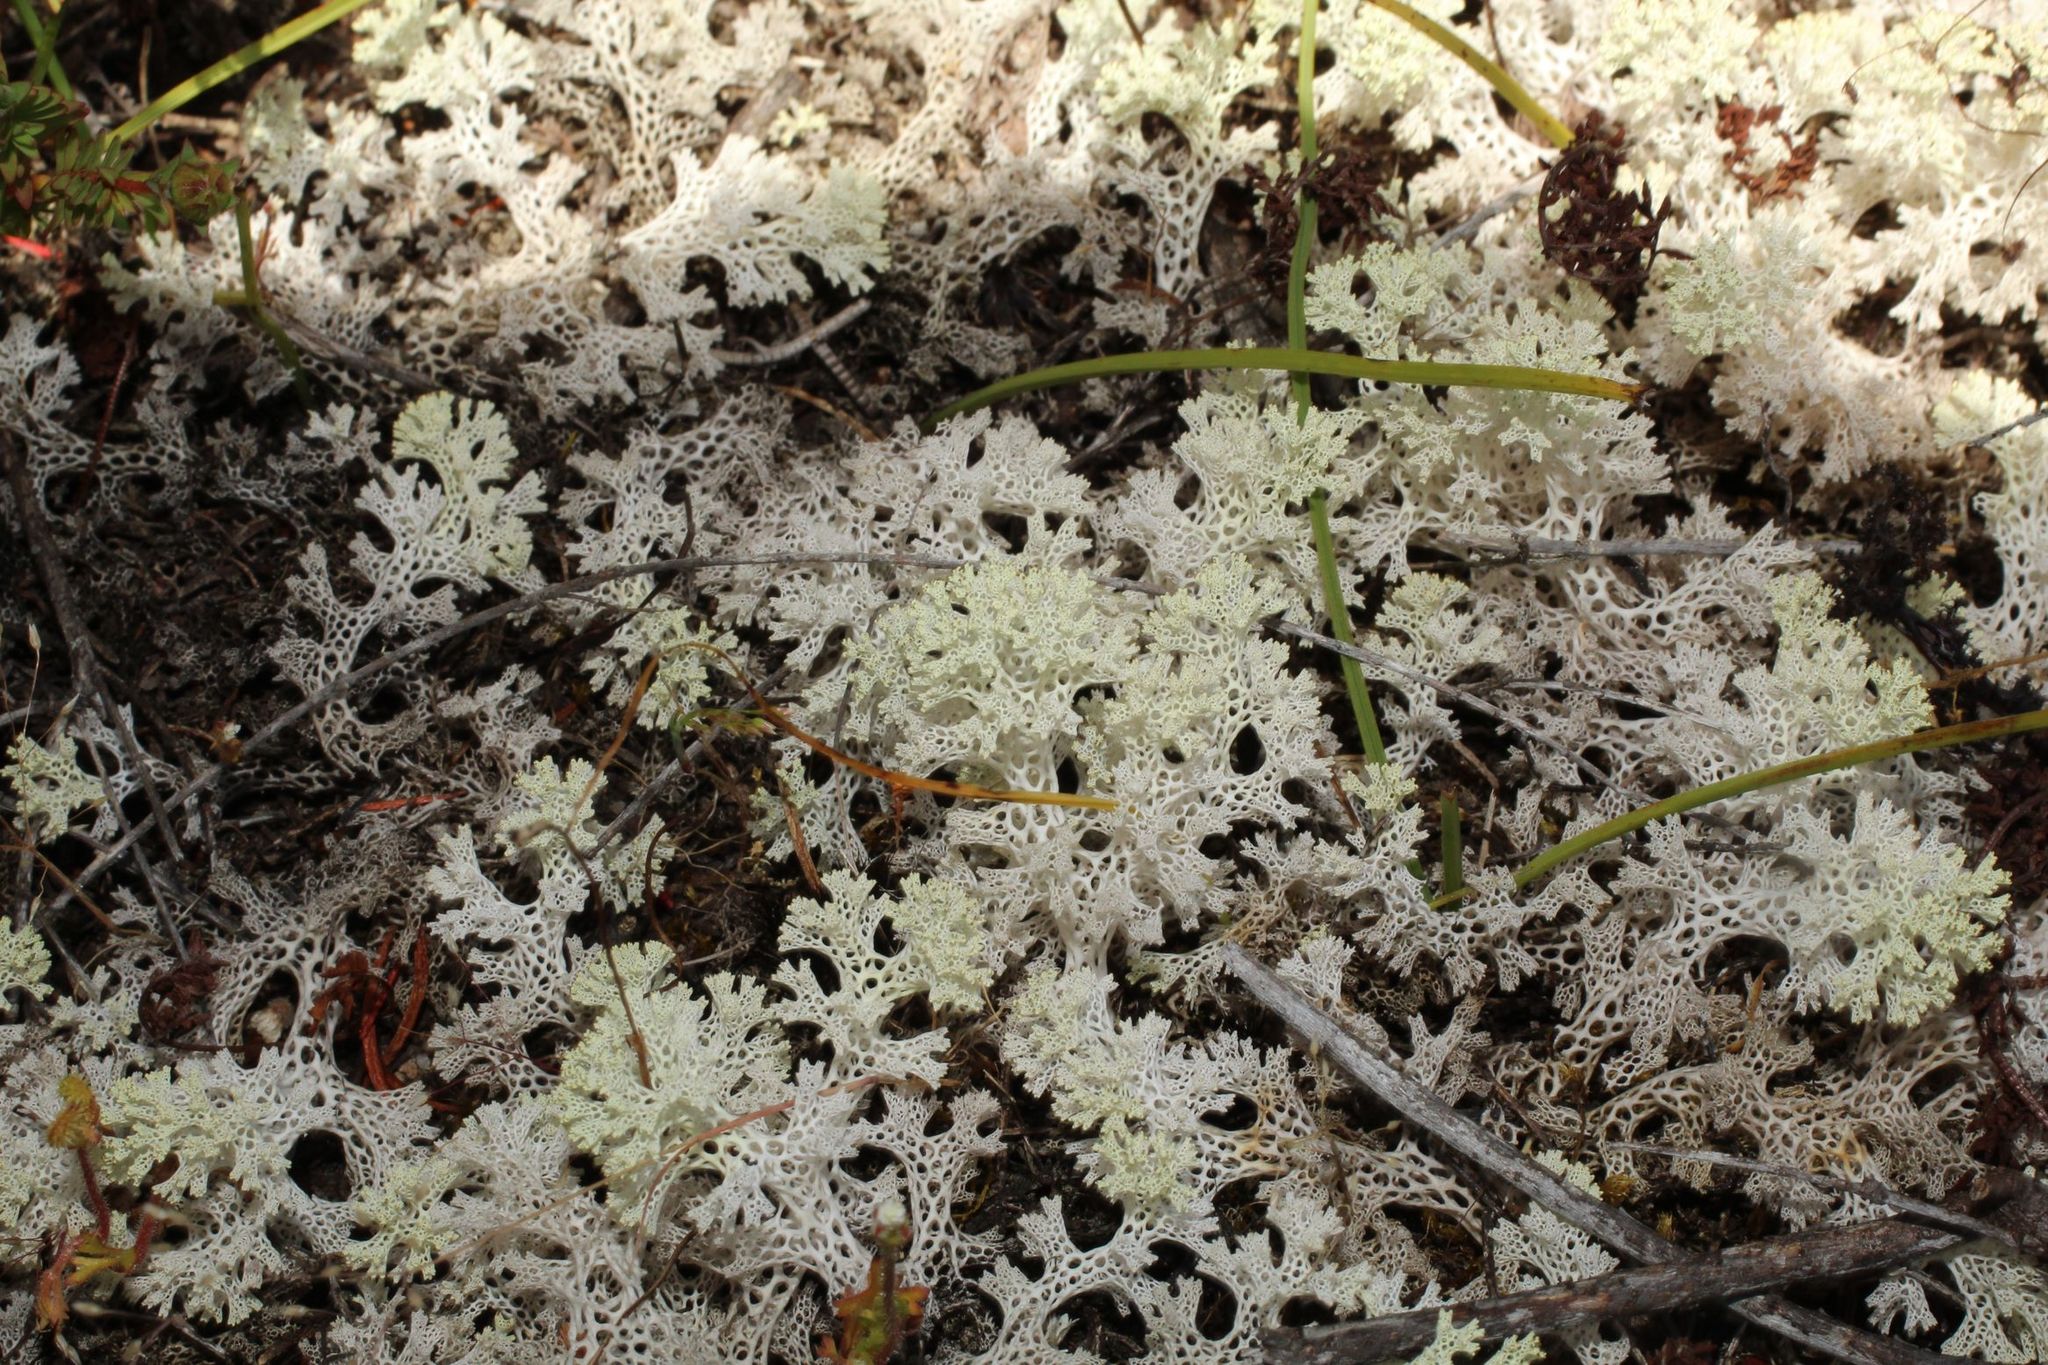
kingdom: Fungi
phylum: Ascomycota
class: Lecanoromycetes
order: Lecanorales
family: Cladoniaceae
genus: Pulchrocladia
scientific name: Pulchrocladia ferdinandii
